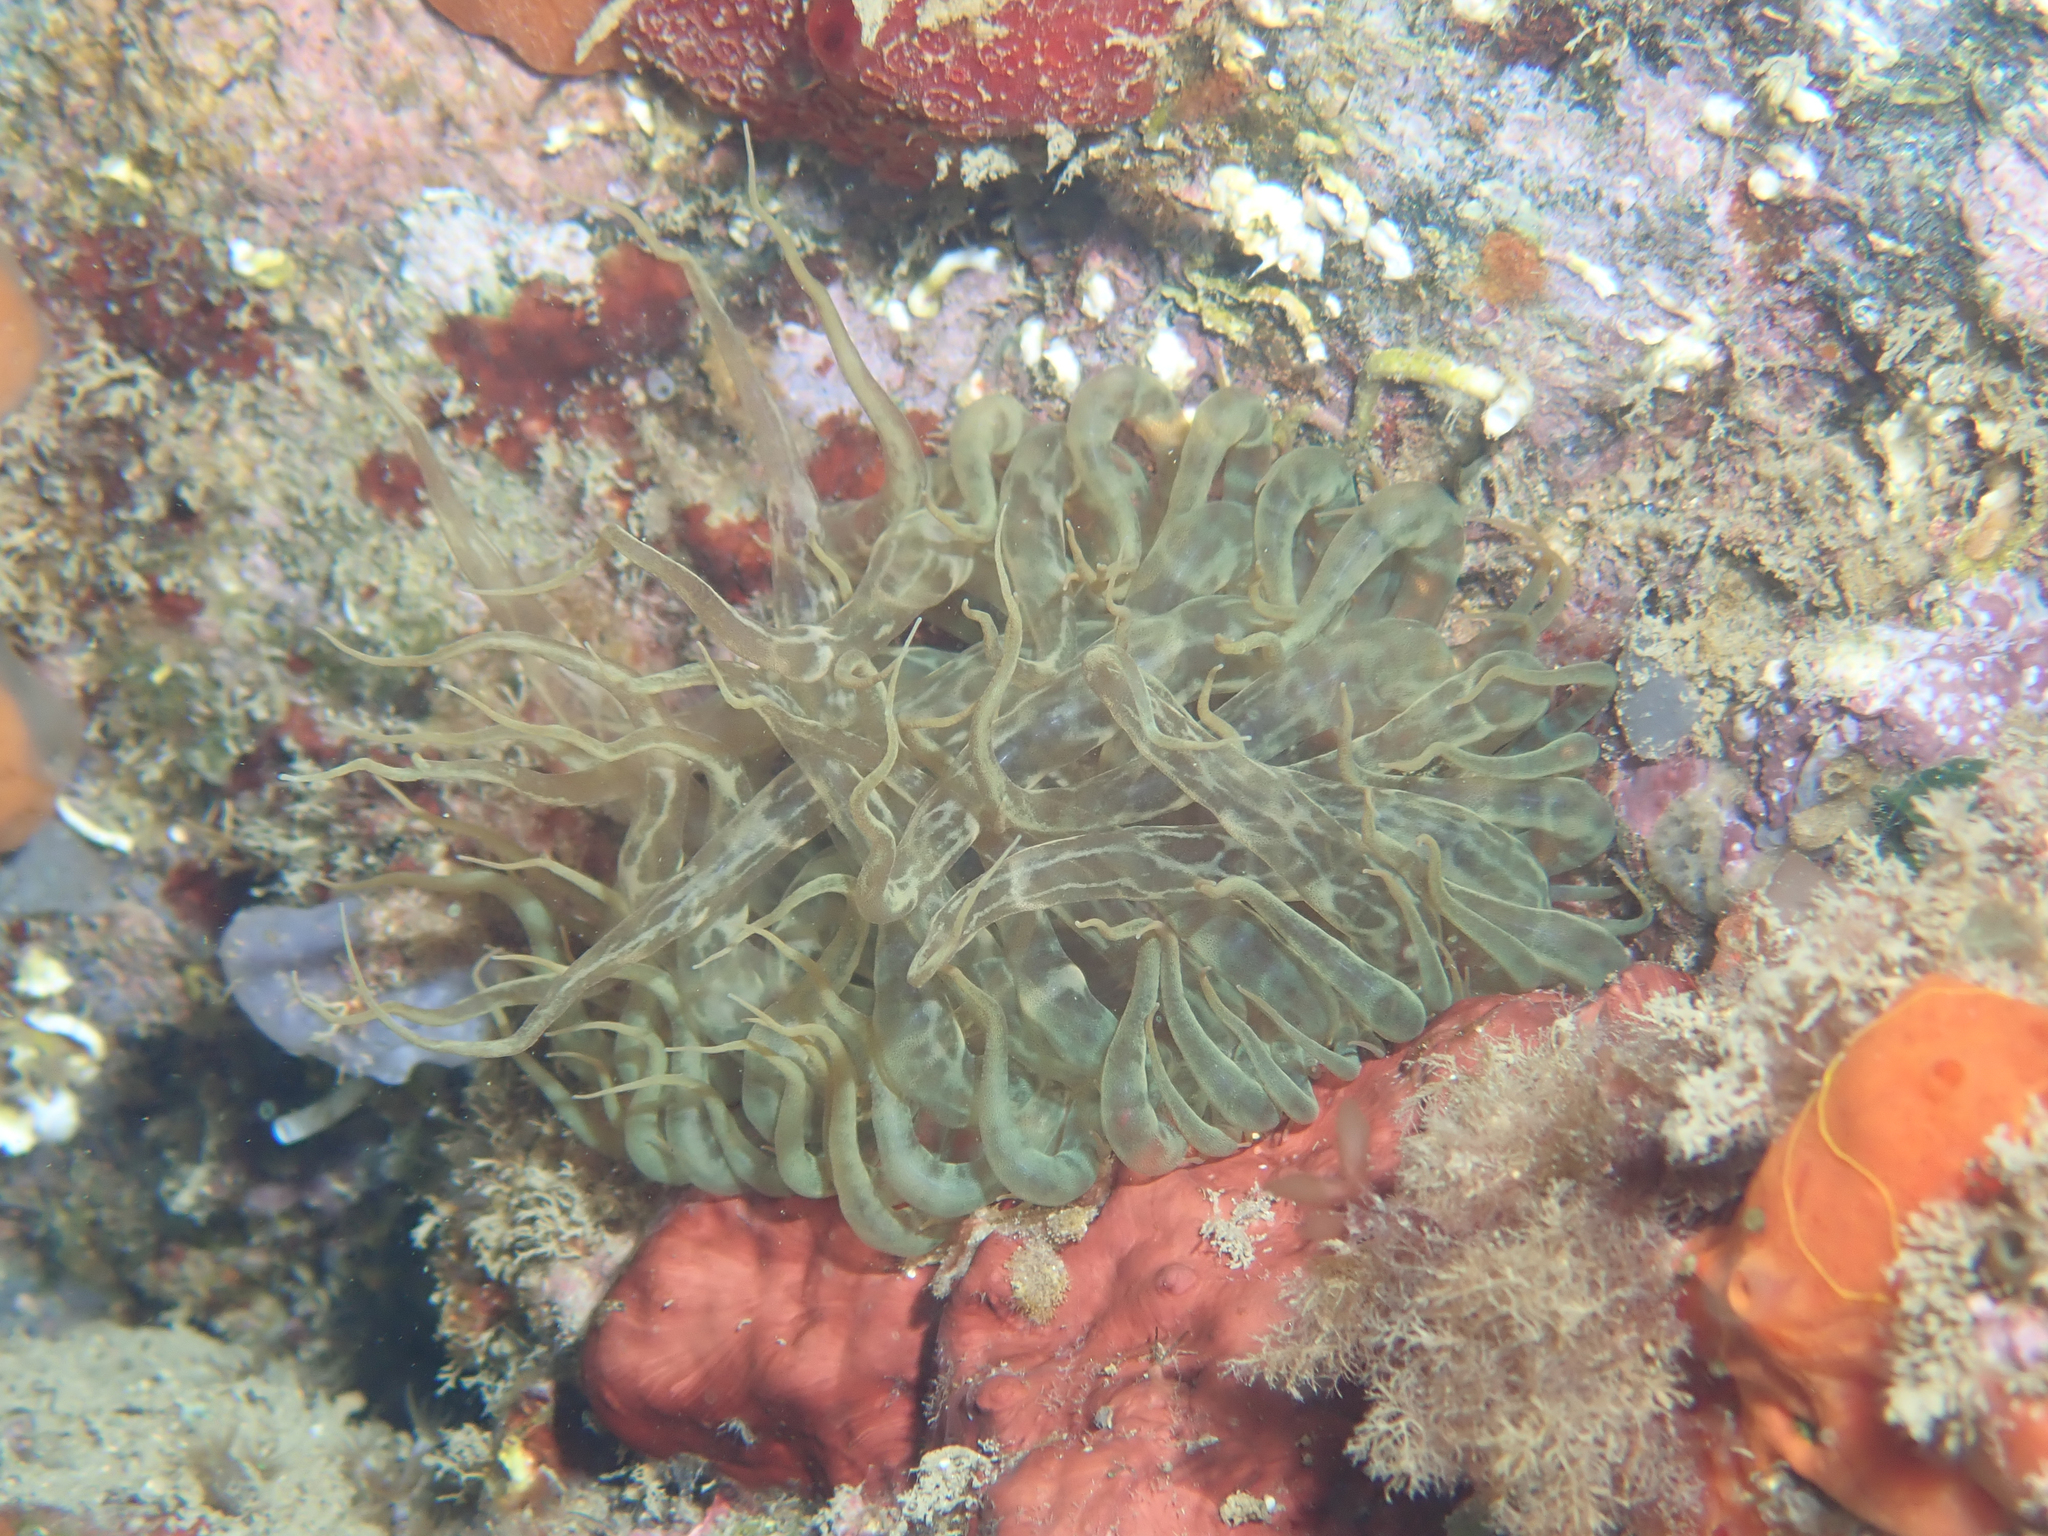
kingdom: Animalia
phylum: Cnidaria
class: Anthozoa
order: Actiniaria
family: Aiptasiidae
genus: Aiptasia
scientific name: Aiptasia mutabilis
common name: Trumpet anemone
